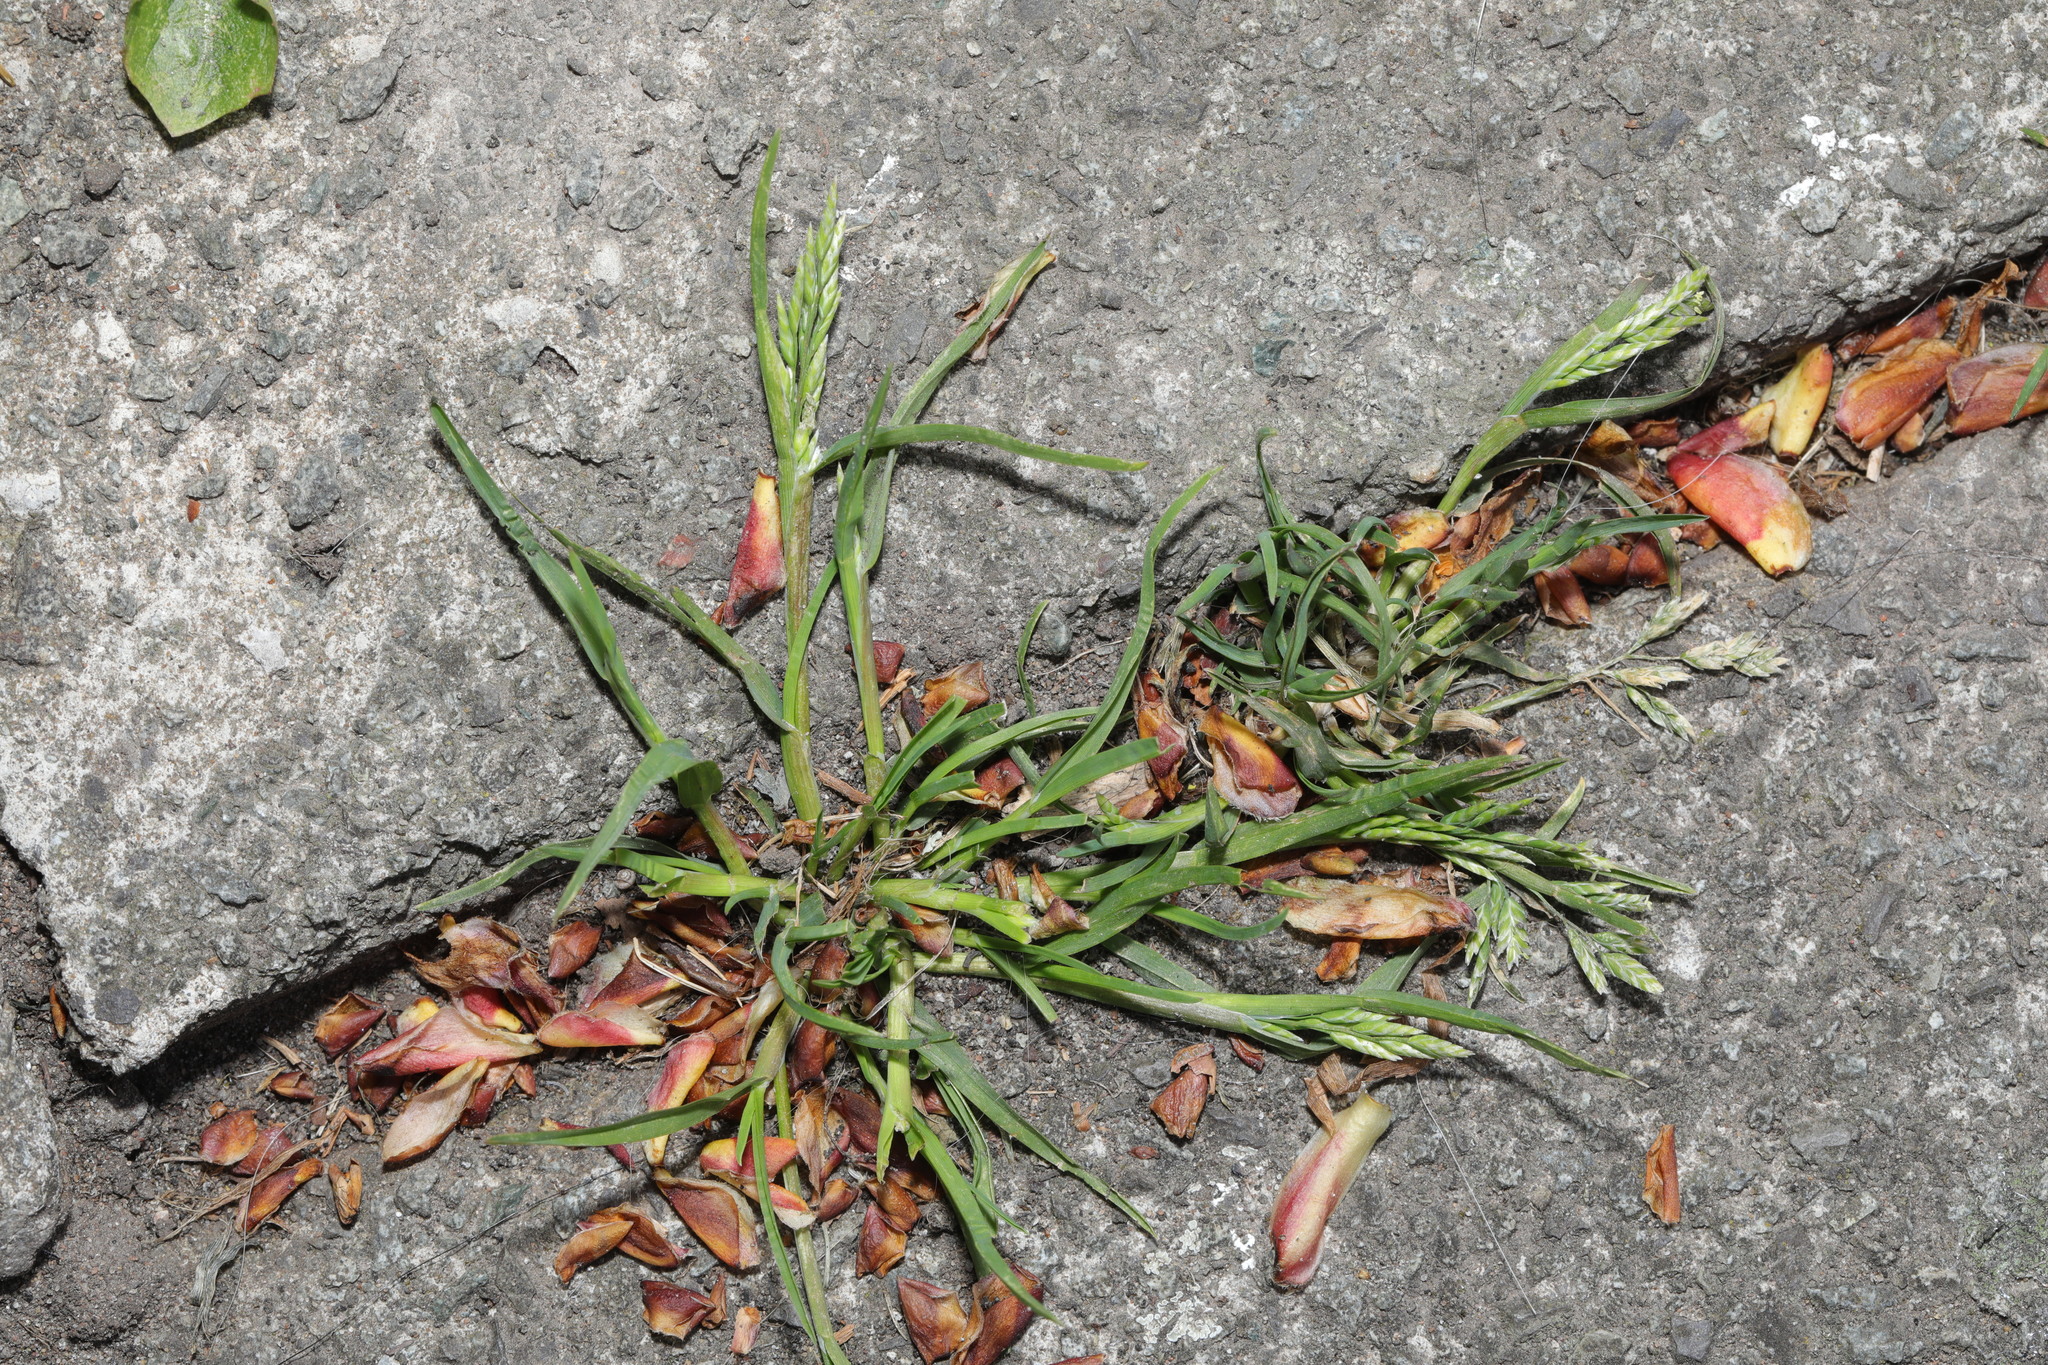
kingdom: Plantae
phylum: Tracheophyta
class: Liliopsida
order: Poales
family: Poaceae
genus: Poa
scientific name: Poa annua
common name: Annual bluegrass
